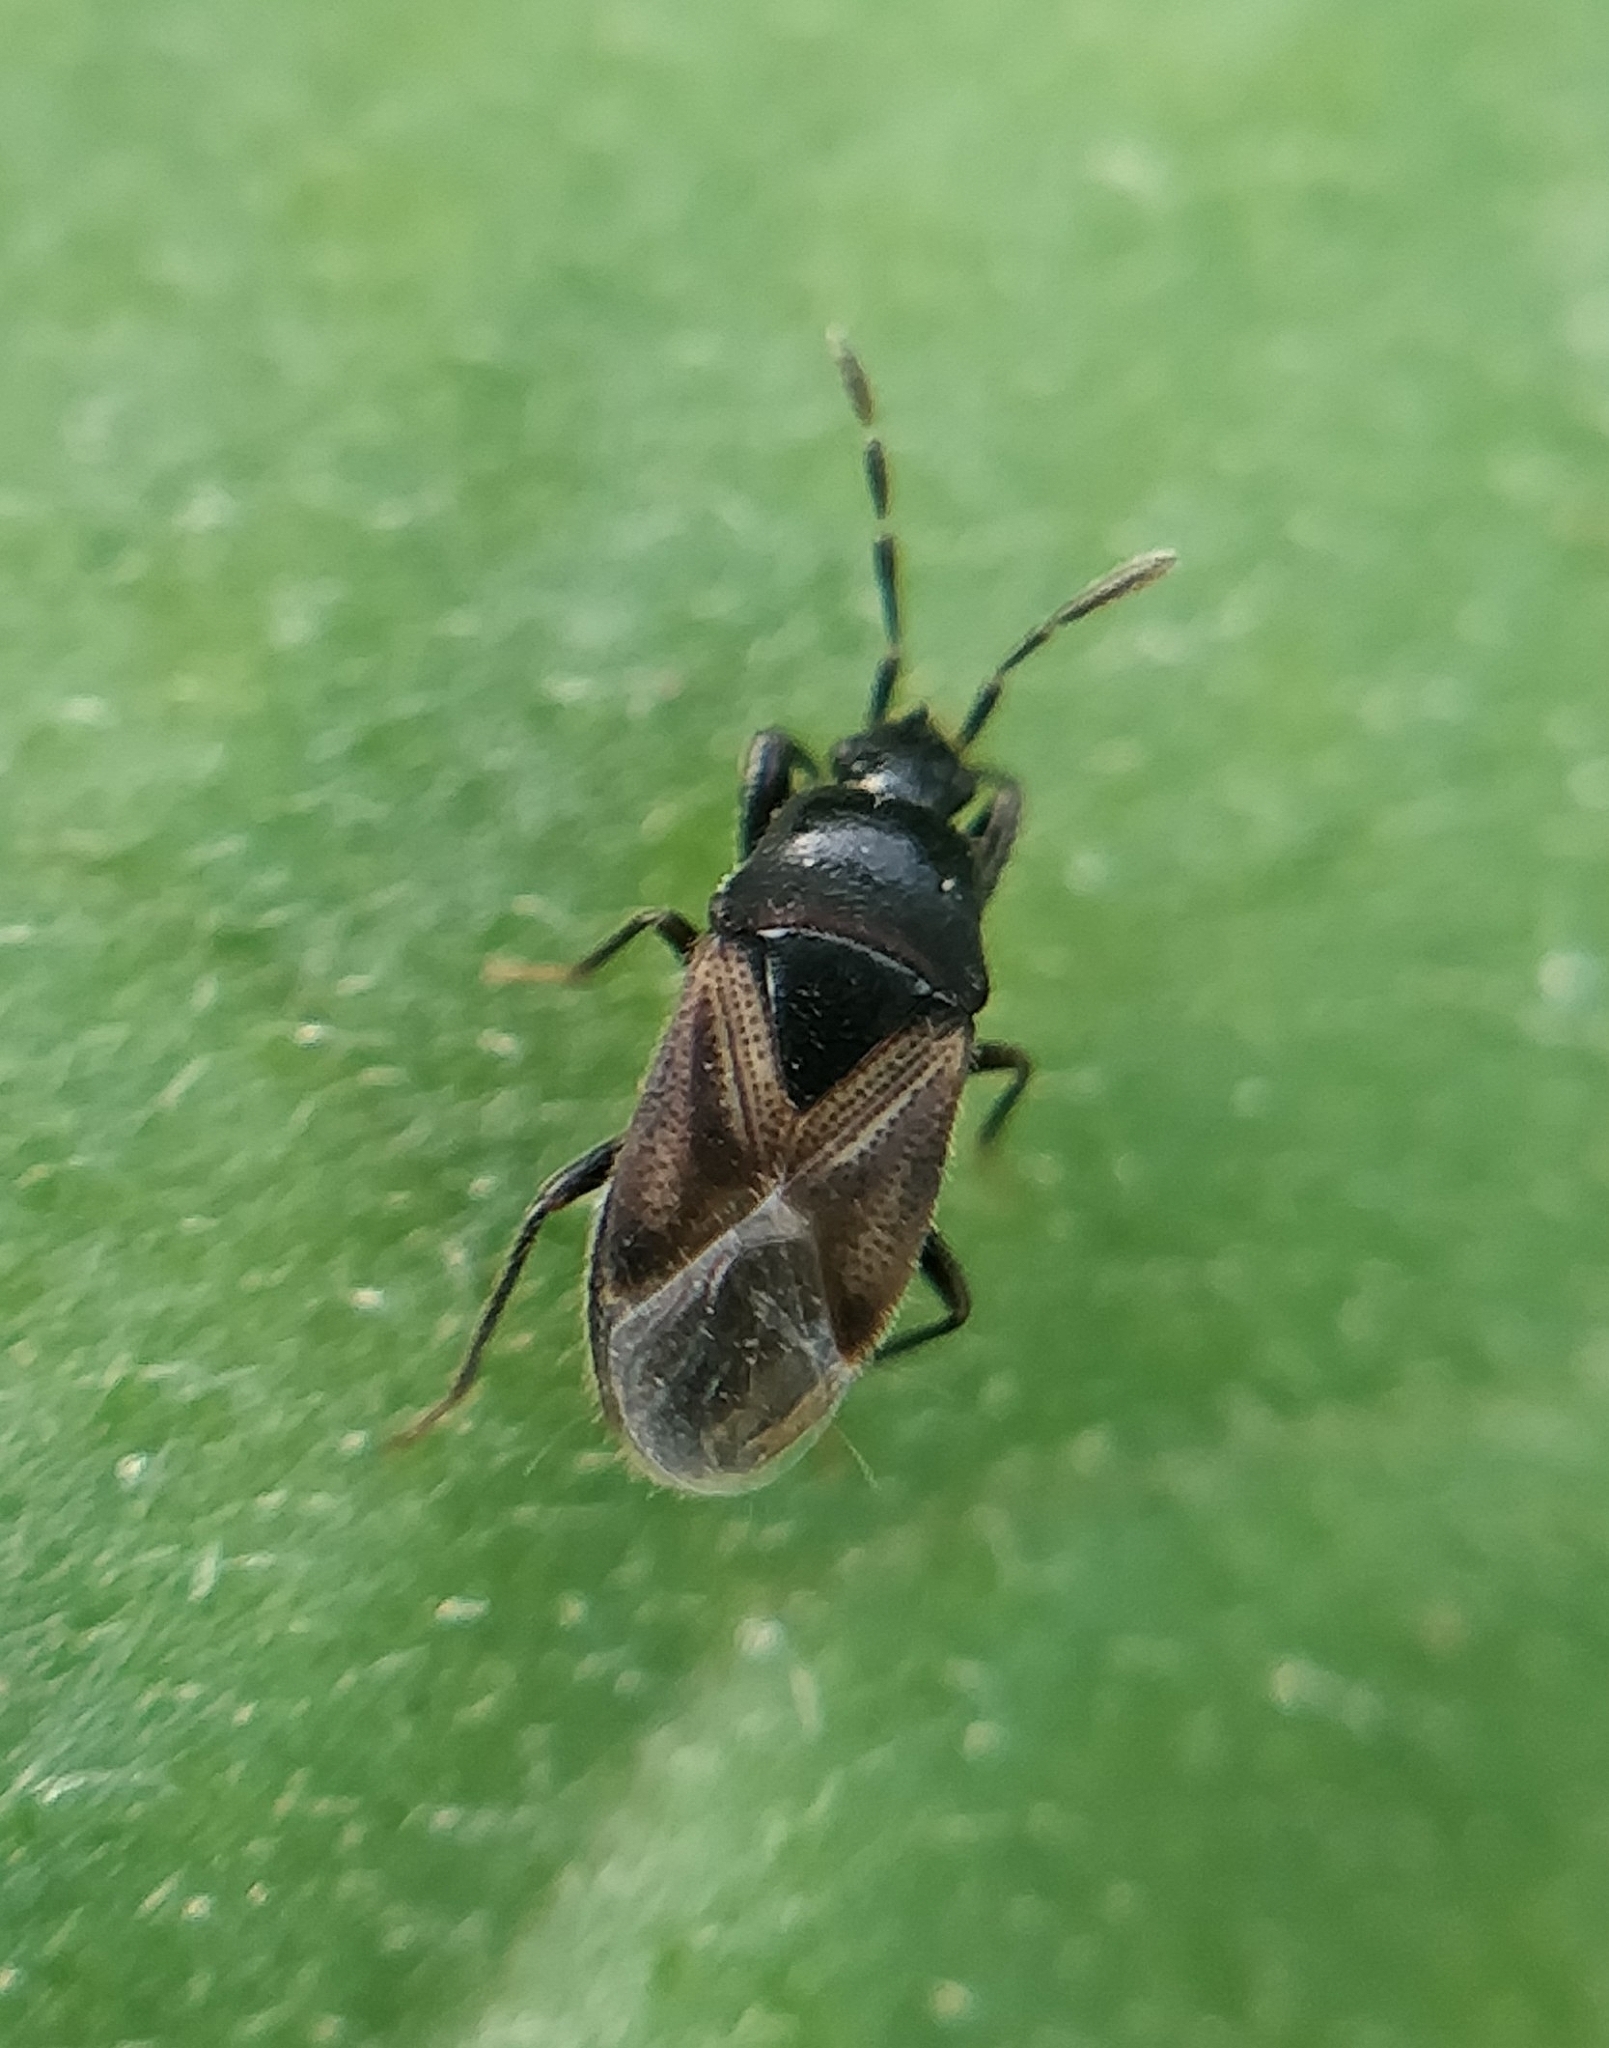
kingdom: Animalia
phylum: Arthropoda
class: Insecta
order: Hemiptera
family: Rhyparochromidae
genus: Tropistethus
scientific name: Tropistethus seminitens
